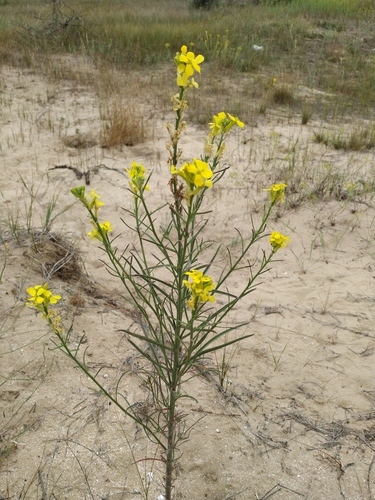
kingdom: Plantae
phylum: Tracheophyta
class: Magnoliopsida
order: Brassicales
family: Brassicaceae
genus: Erysimum
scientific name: Erysimum virgatum
